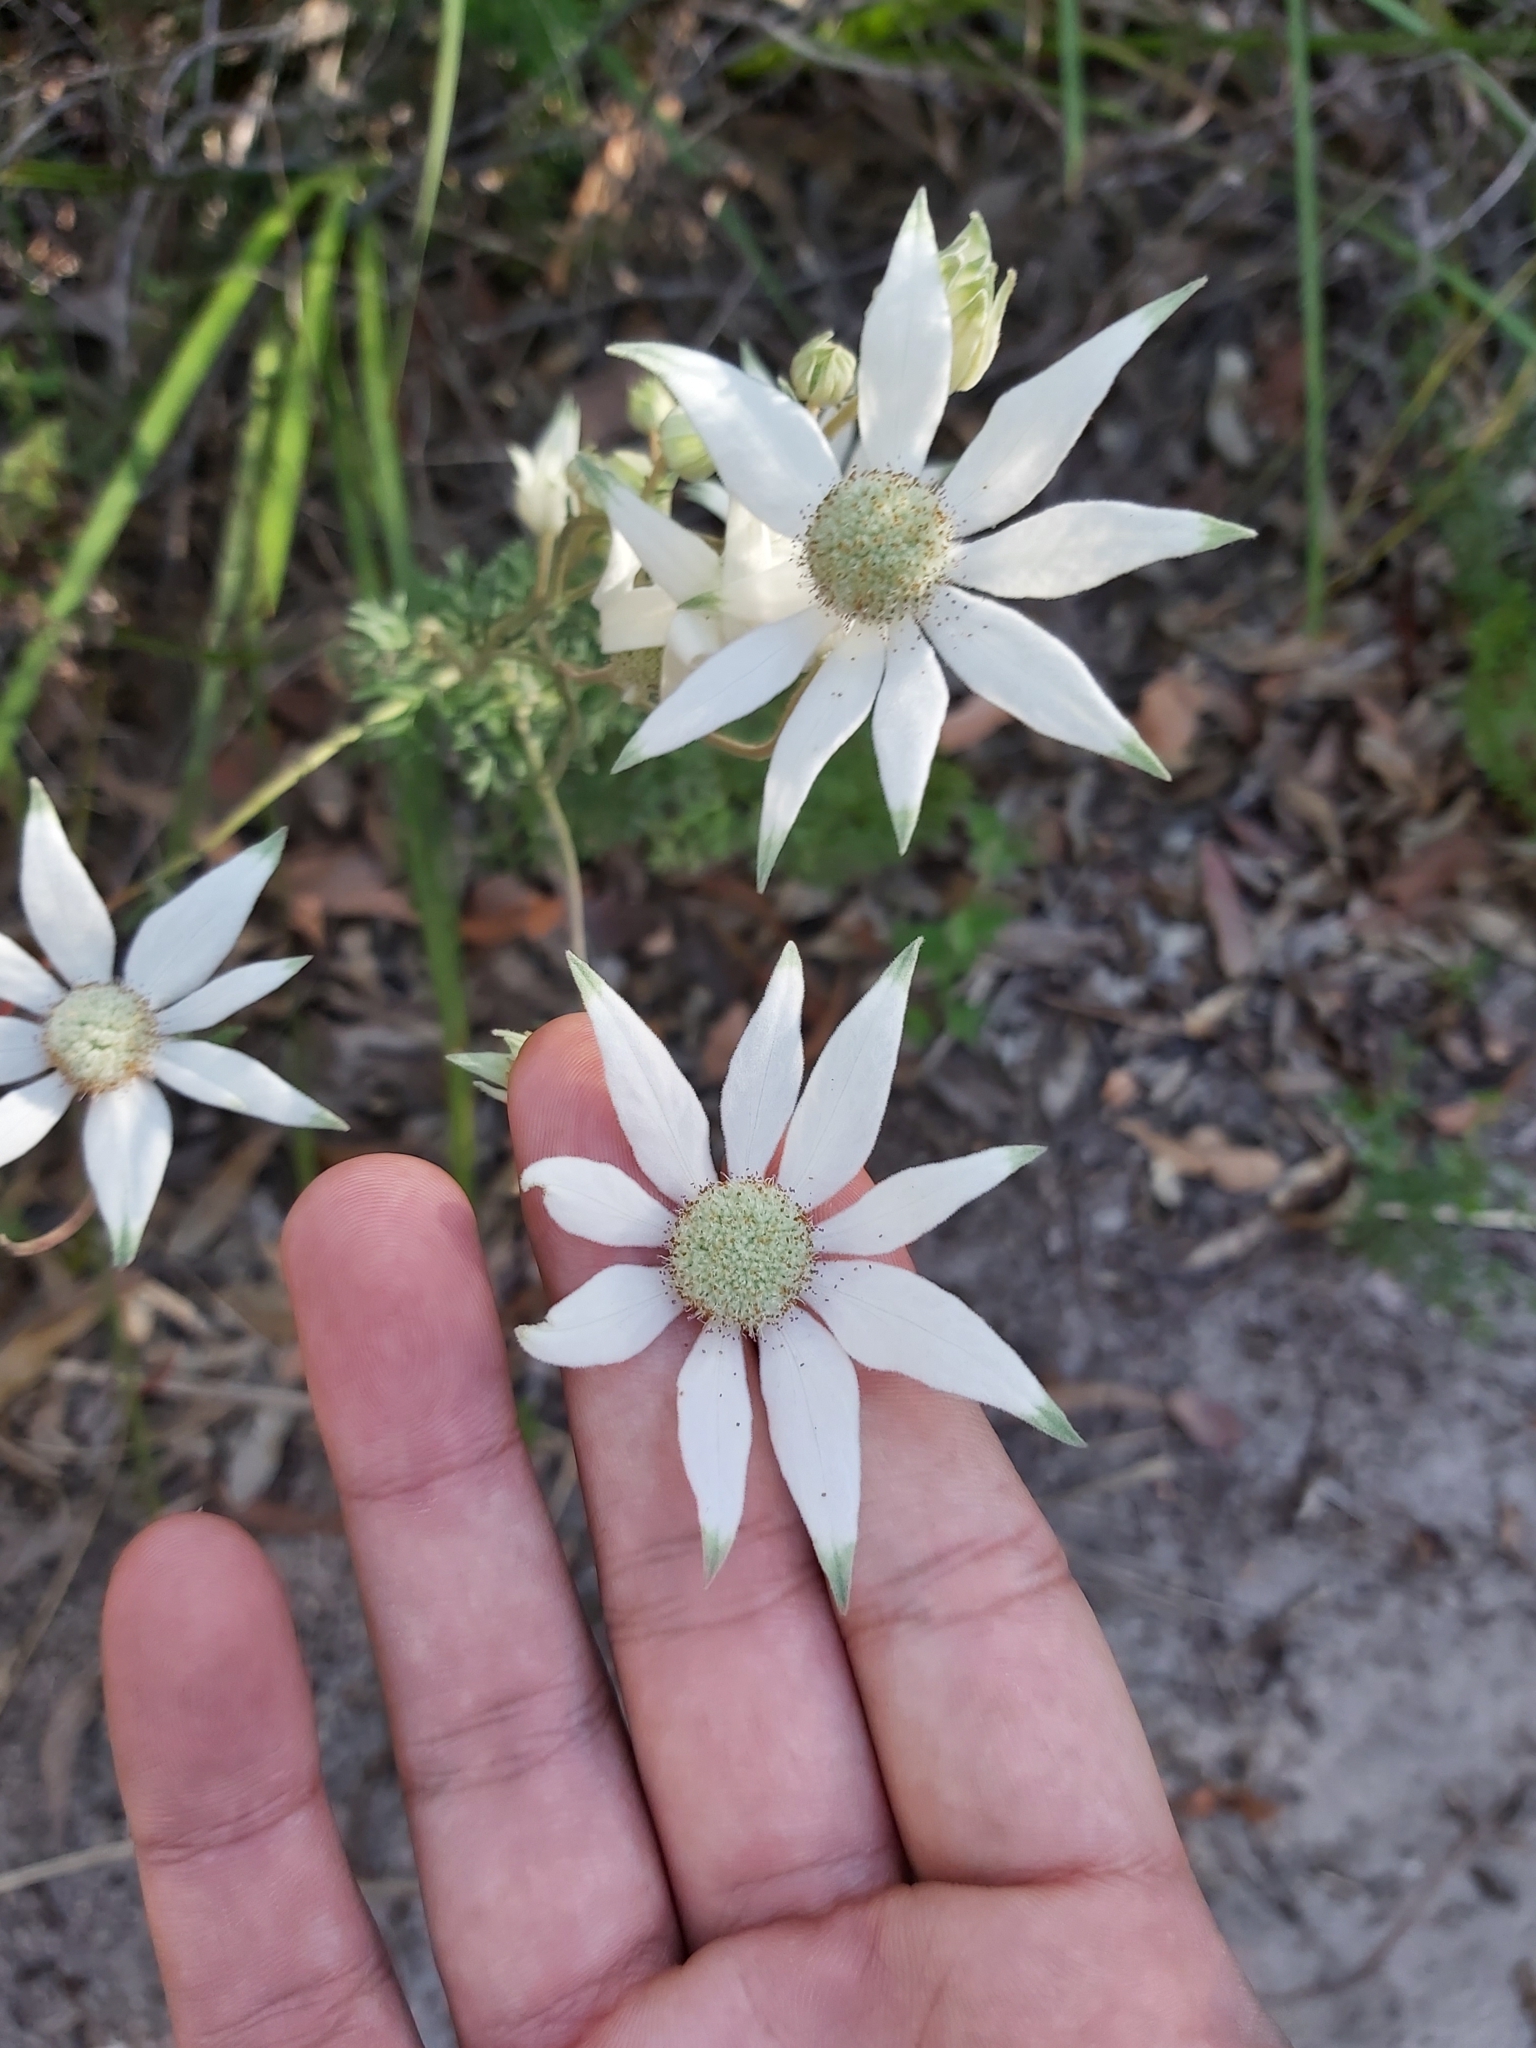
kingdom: Plantae
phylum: Tracheophyta
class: Magnoliopsida
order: Apiales
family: Apiaceae
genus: Actinotus
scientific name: Actinotus helianthi
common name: Flannel-flower
